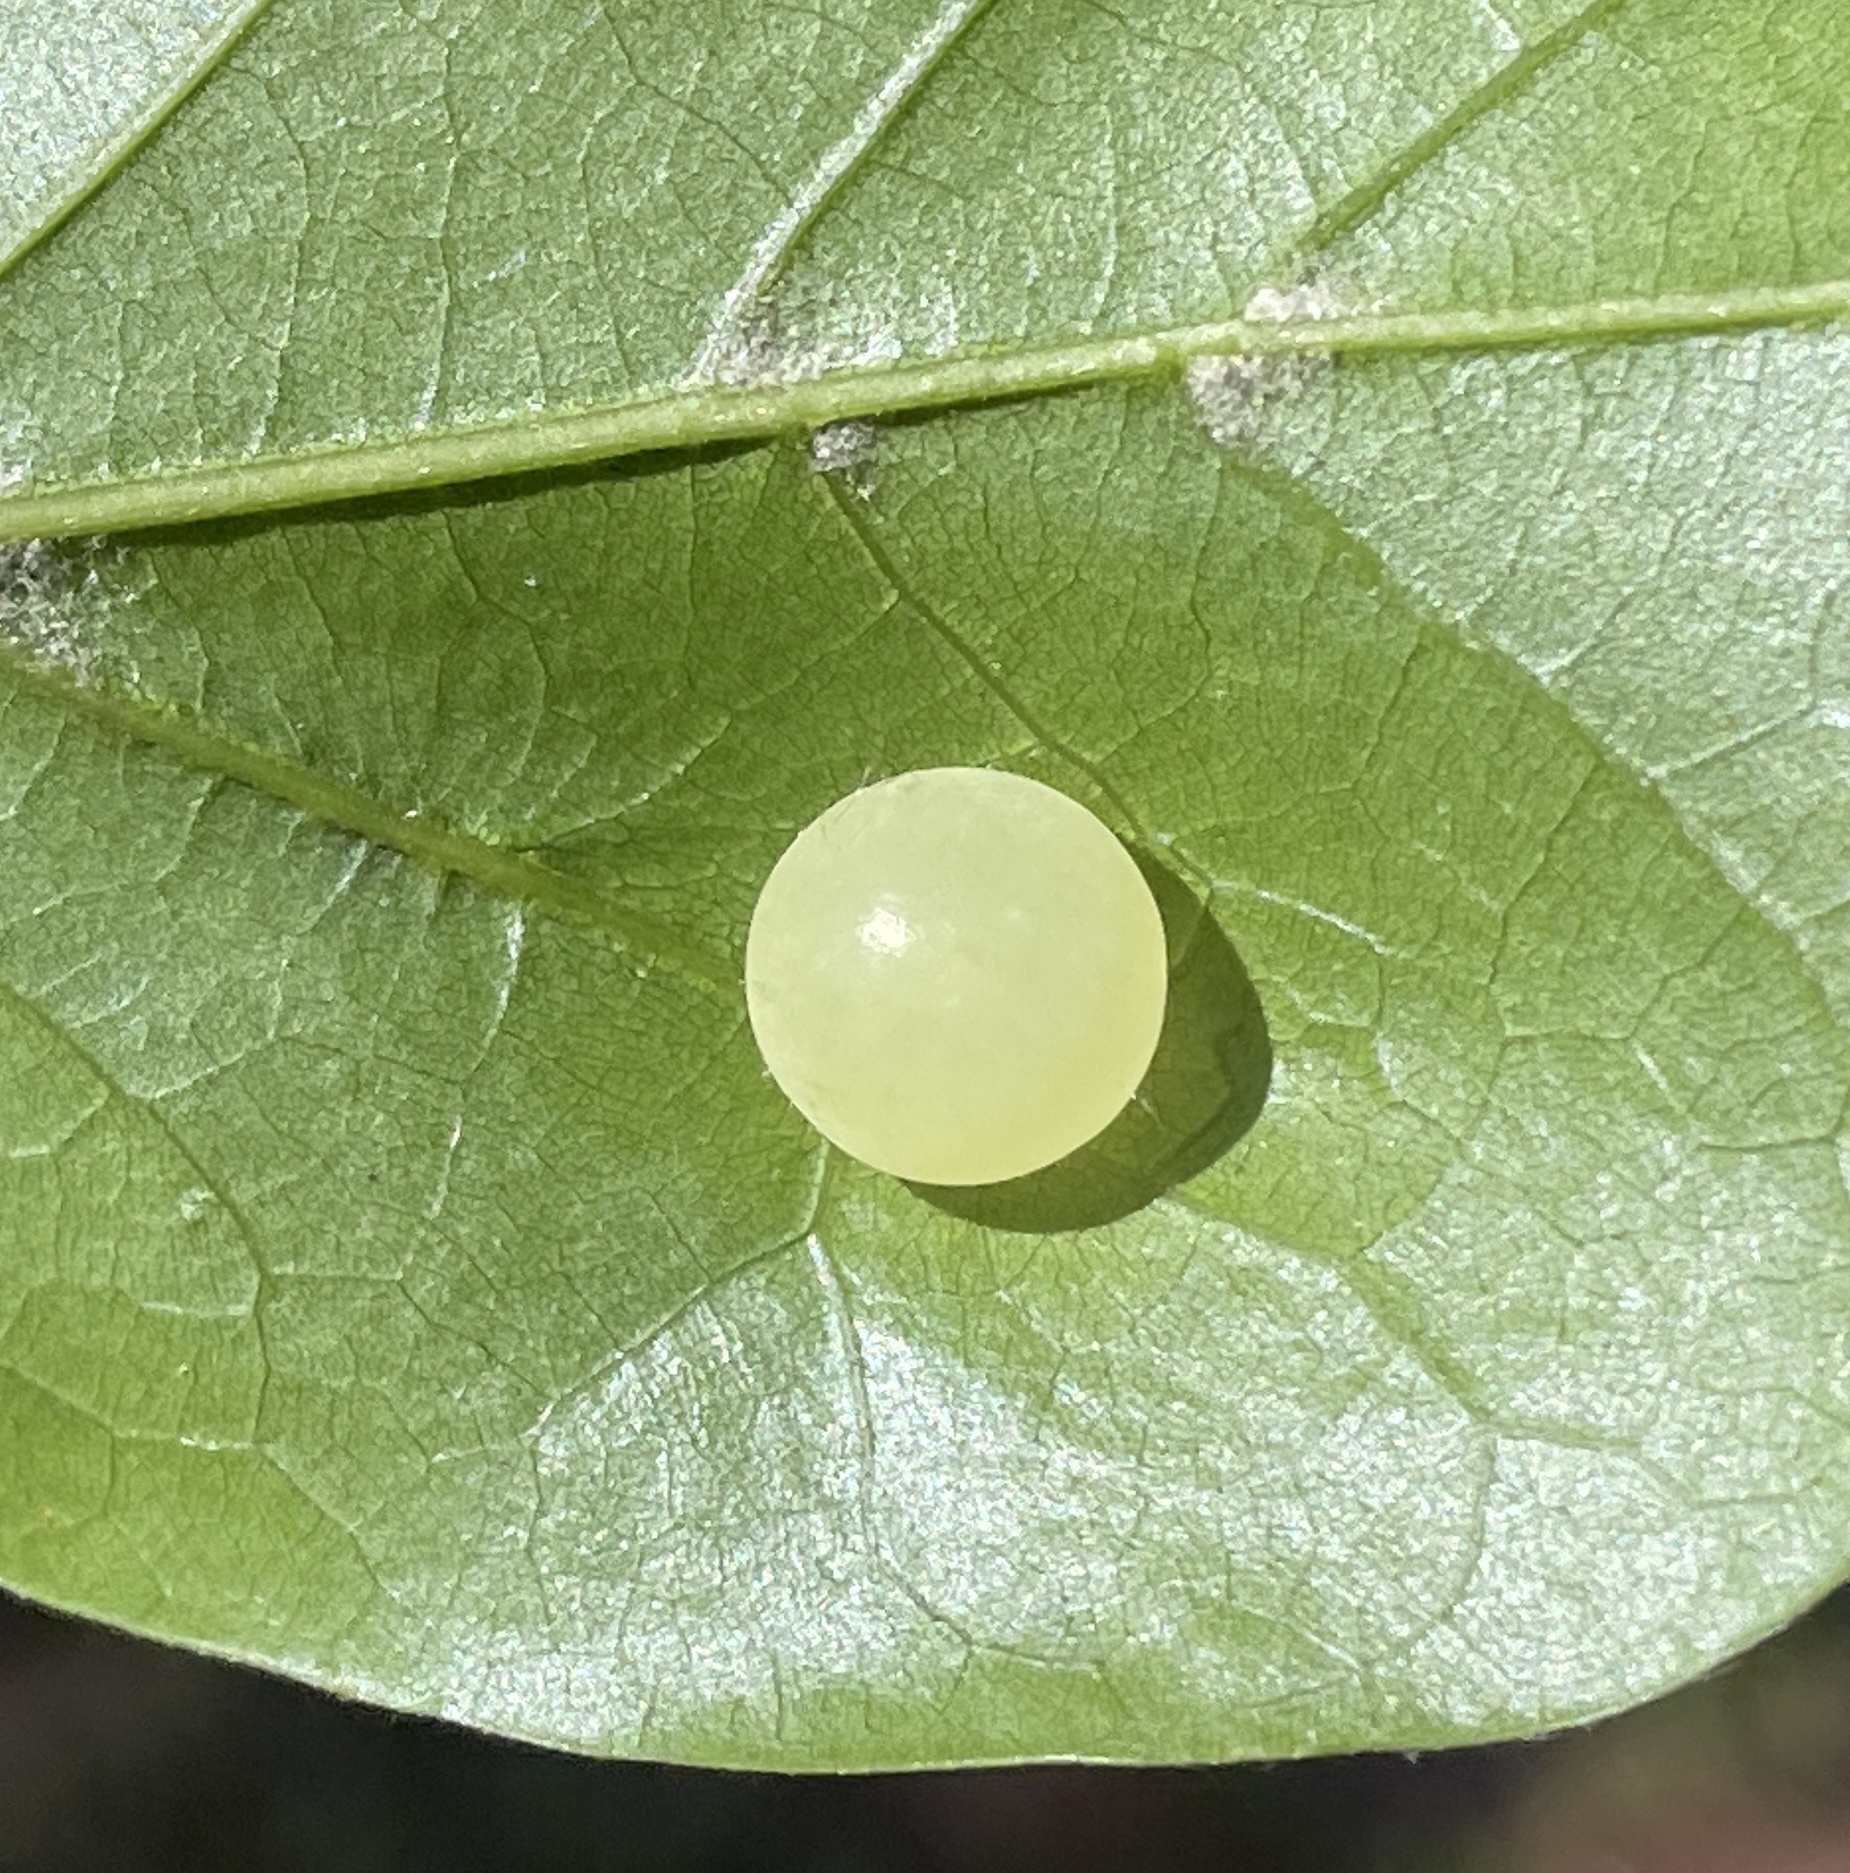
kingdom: Animalia
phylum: Arthropoda
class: Insecta
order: Hymenoptera
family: Cynipidae
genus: Amphibolips
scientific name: Amphibolips
